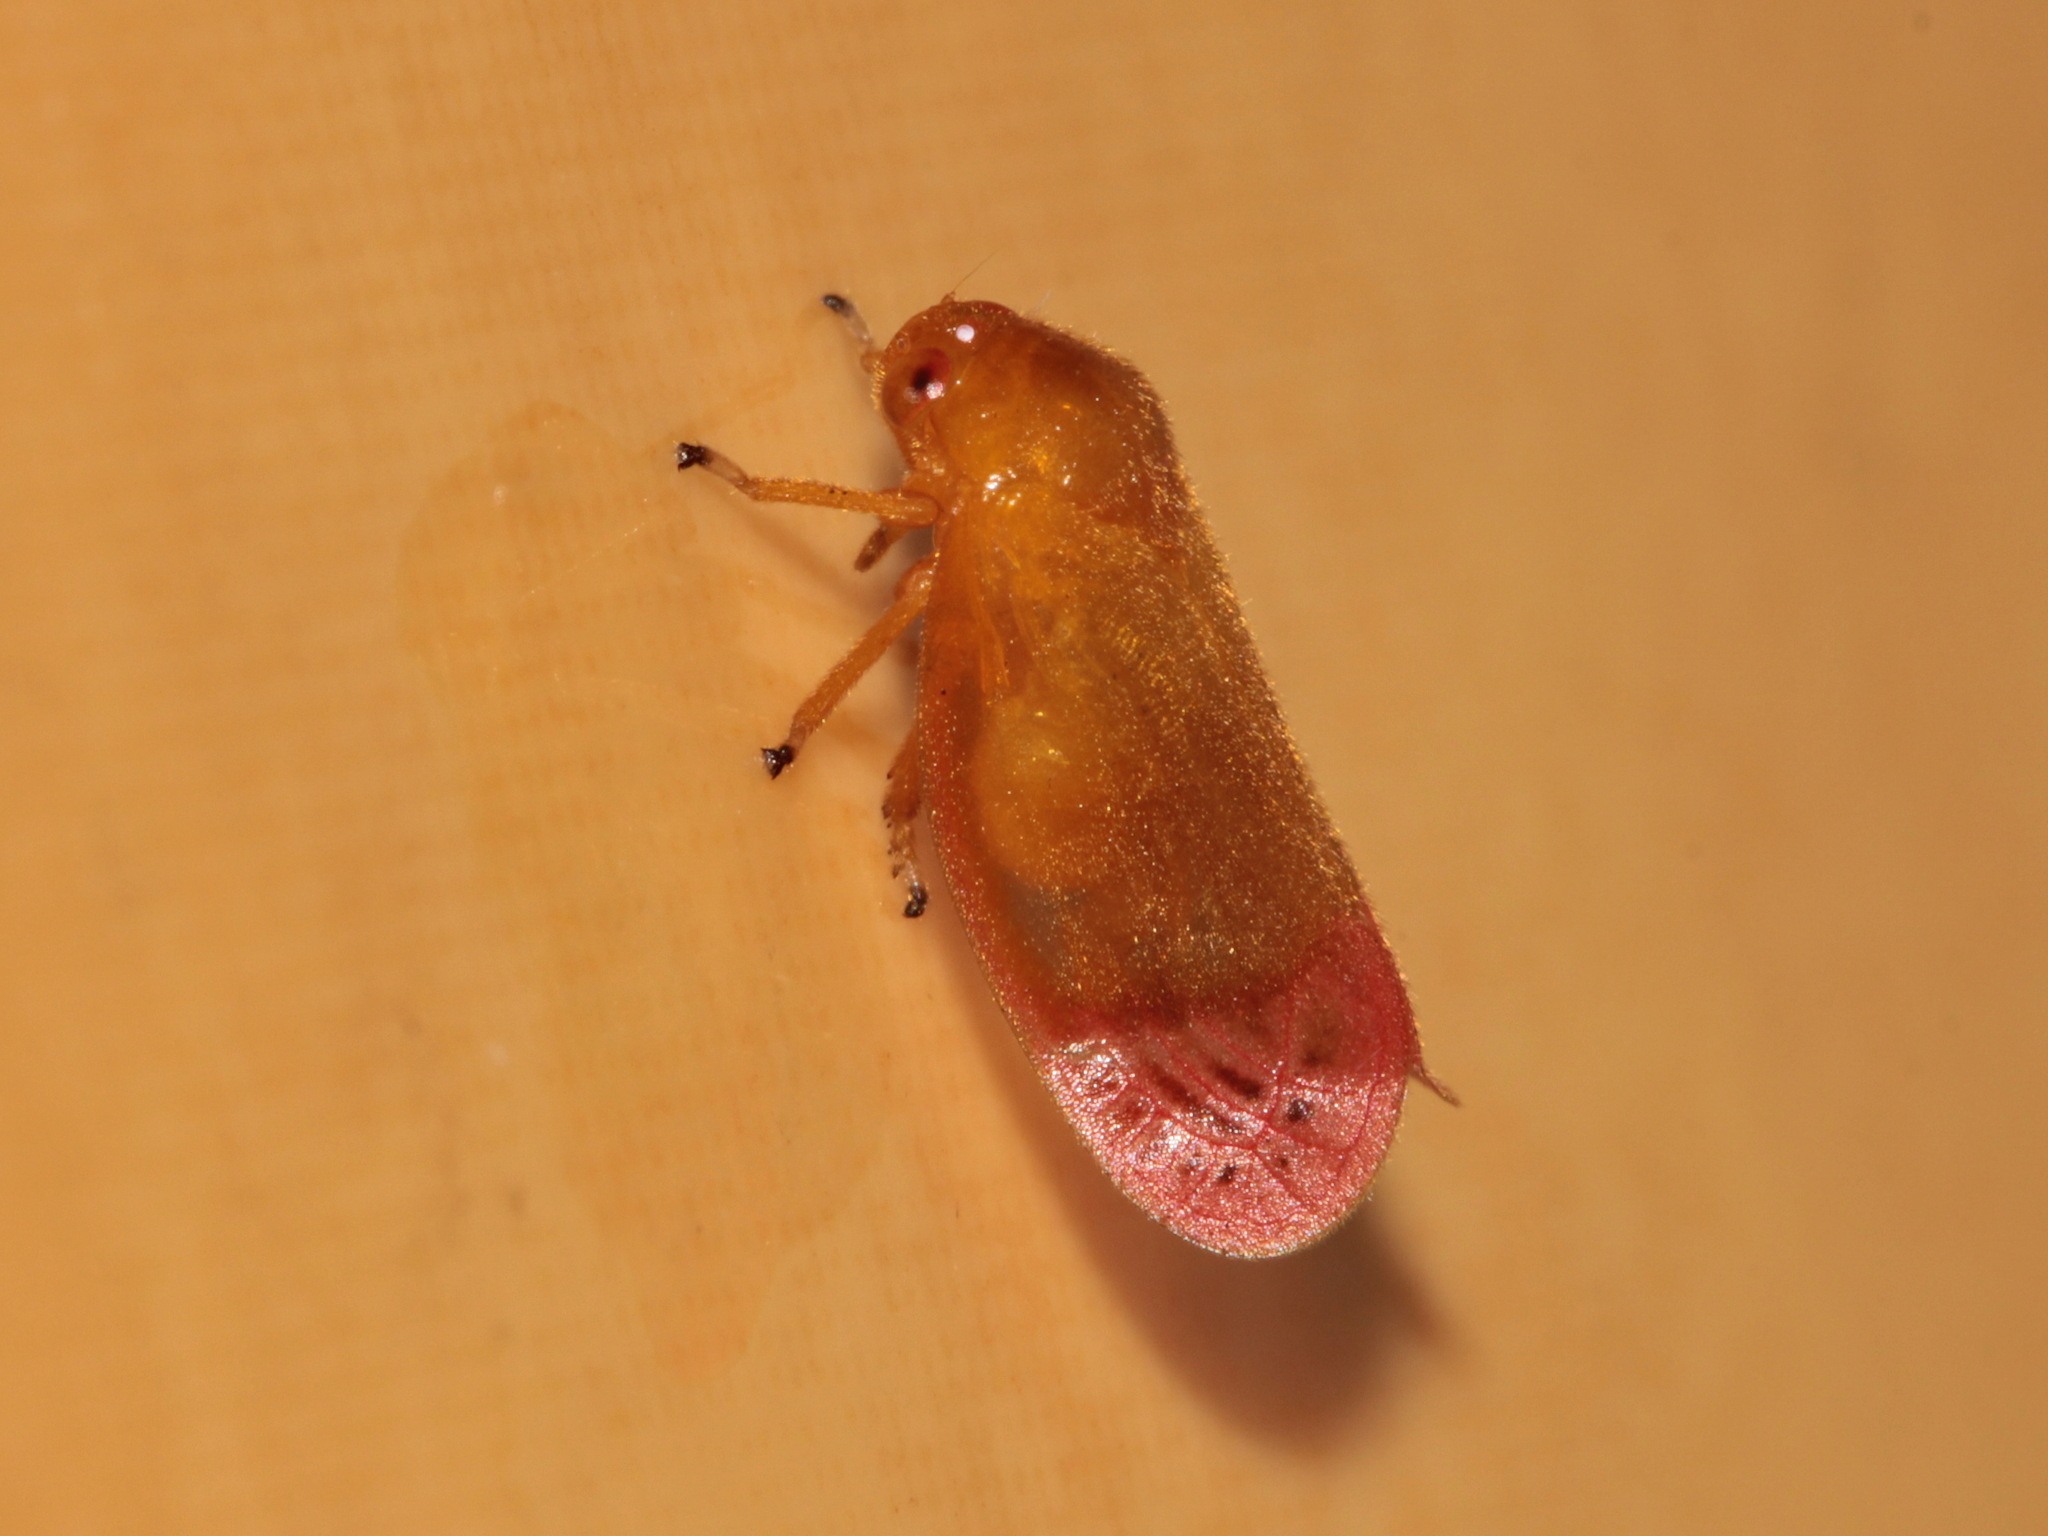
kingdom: Animalia
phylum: Arthropoda
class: Insecta
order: Hemiptera
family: Cercopidae
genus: Eoscarta
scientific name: Eoscarta liternoides
